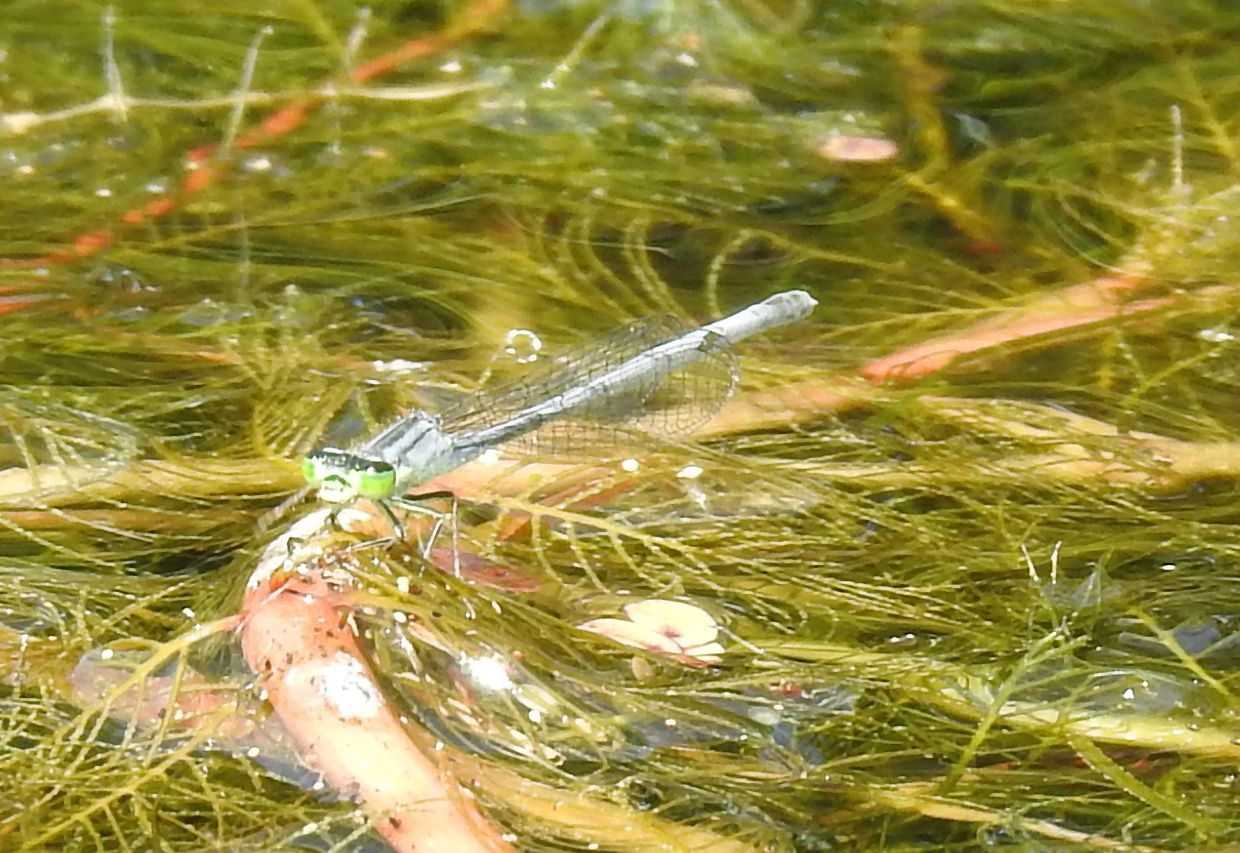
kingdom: Animalia
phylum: Arthropoda
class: Insecta
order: Odonata
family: Coenagrionidae
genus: Ischnura
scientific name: Ischnura verticalis
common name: Eastern forktail
